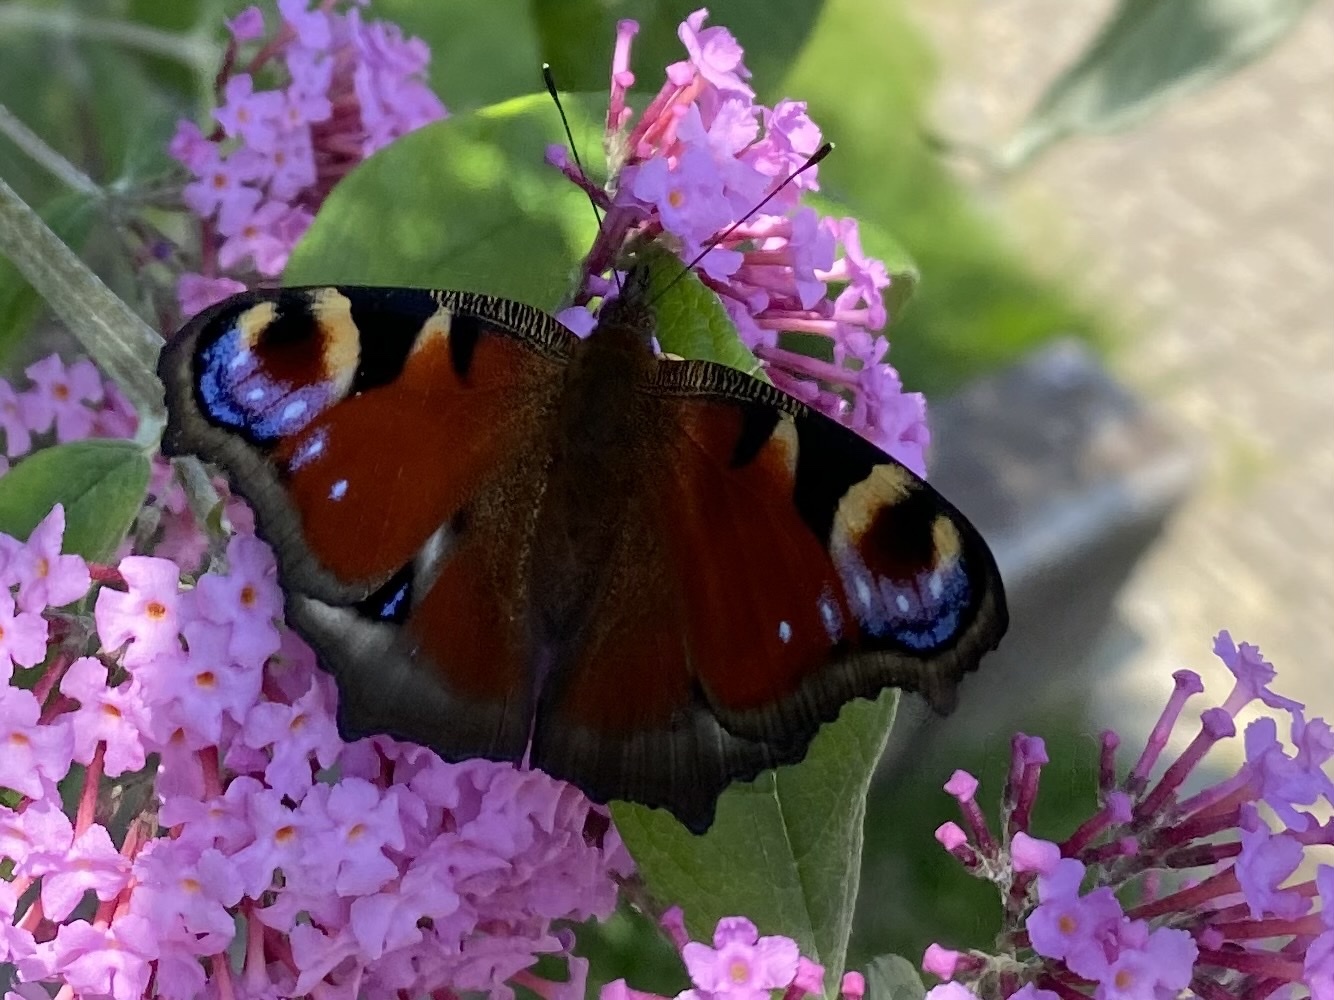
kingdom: Animalia
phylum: Arthropoda
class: Insecta
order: Lepidoptera
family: Nymphalidae
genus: Aglais
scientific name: Aglais io
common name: Peacock
